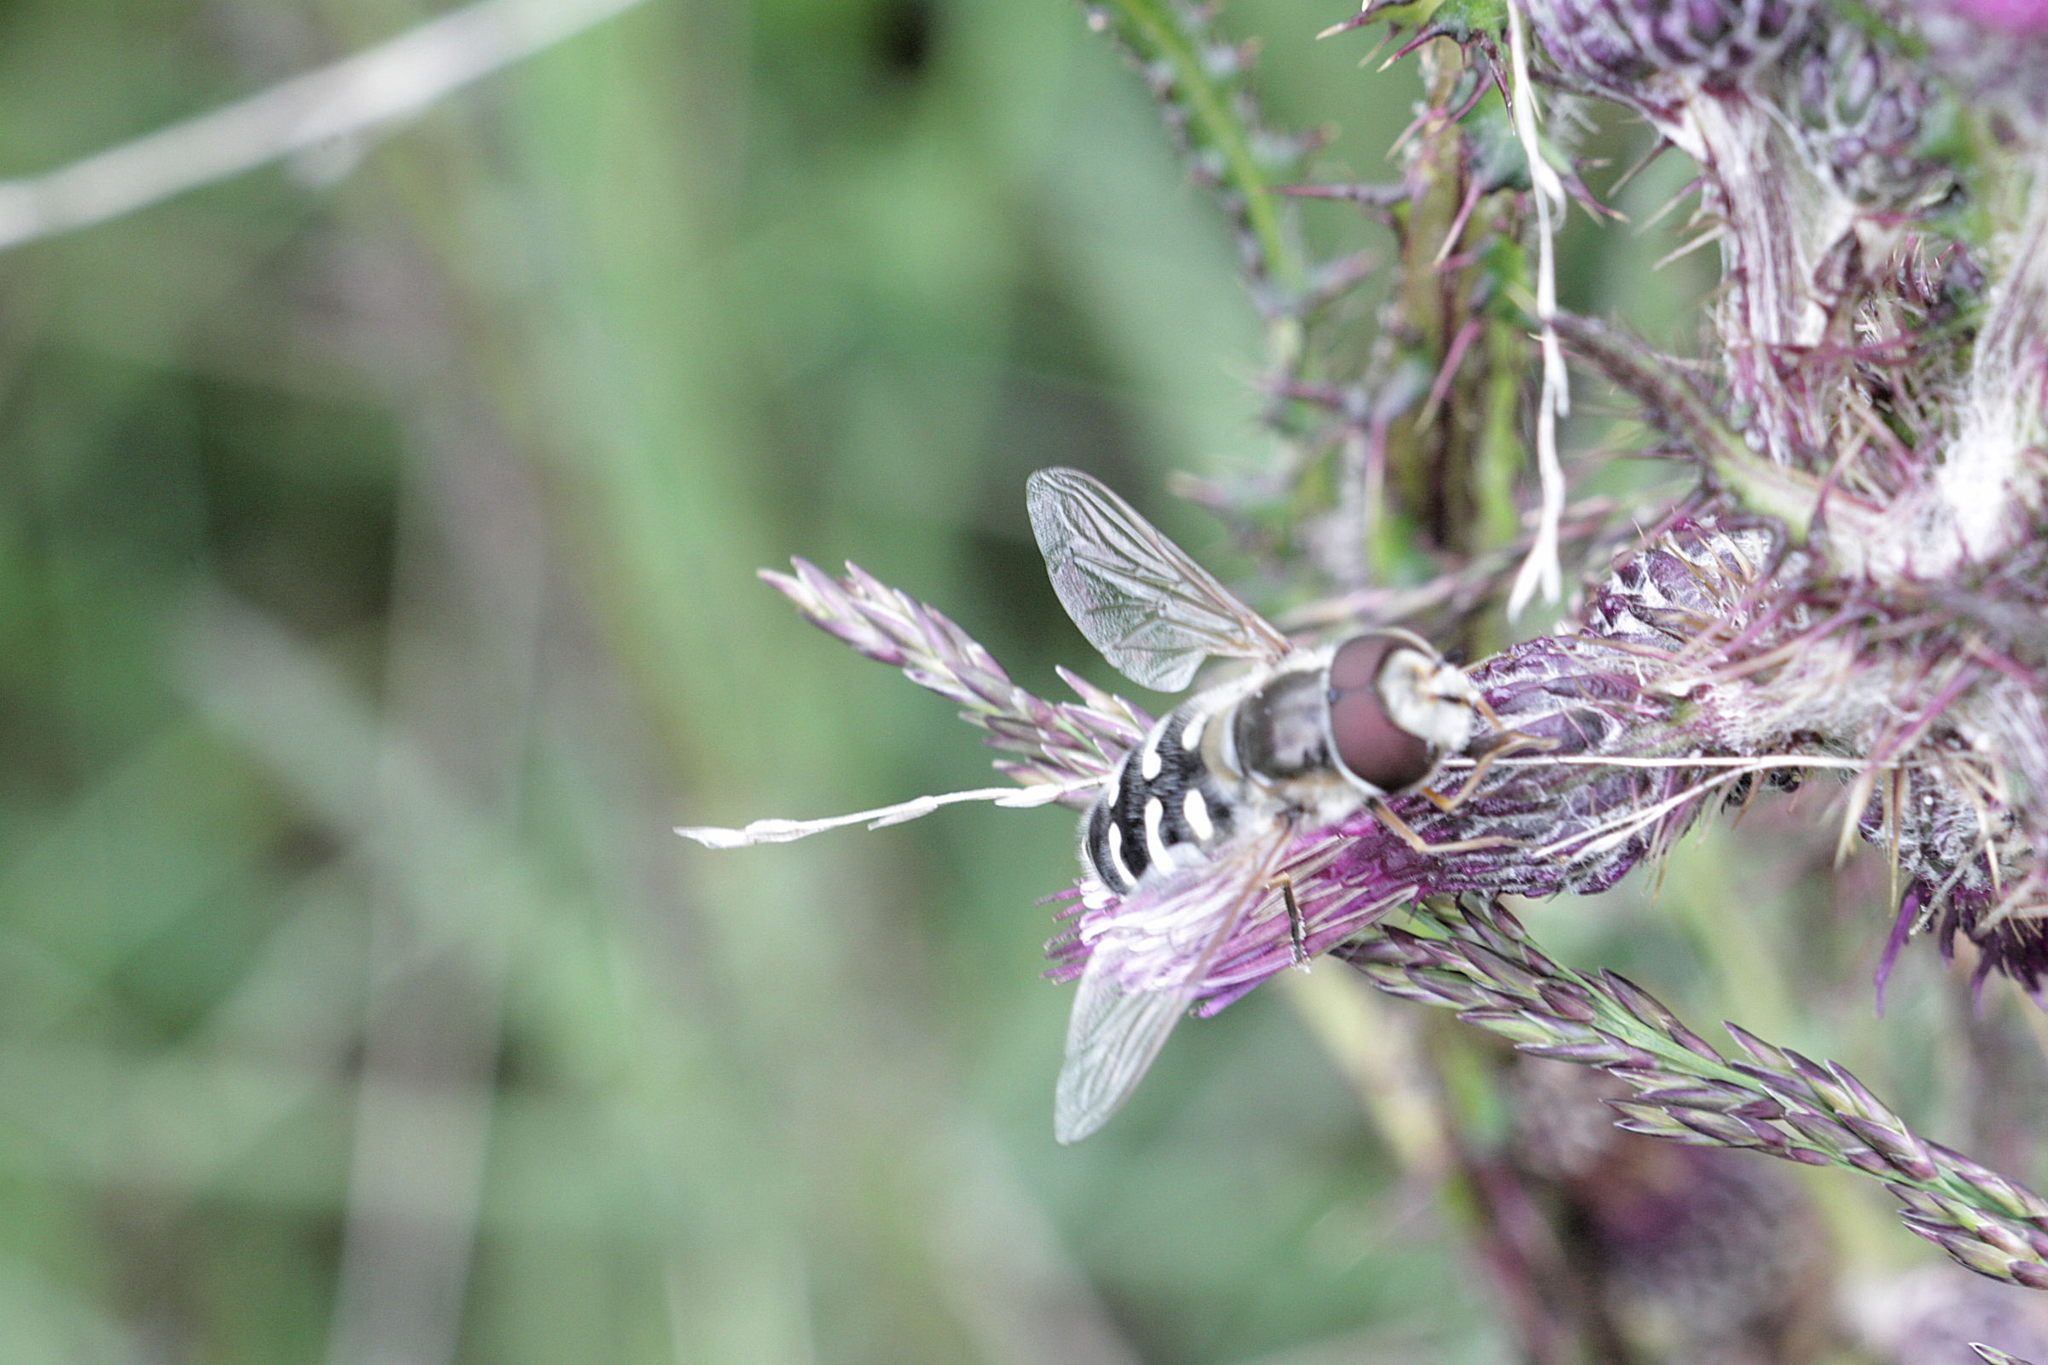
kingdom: Animalia
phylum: Arthropoda
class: Insecta
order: Diptera
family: Syrphidae
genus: Scaeva
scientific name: Scaeva pyrastri
